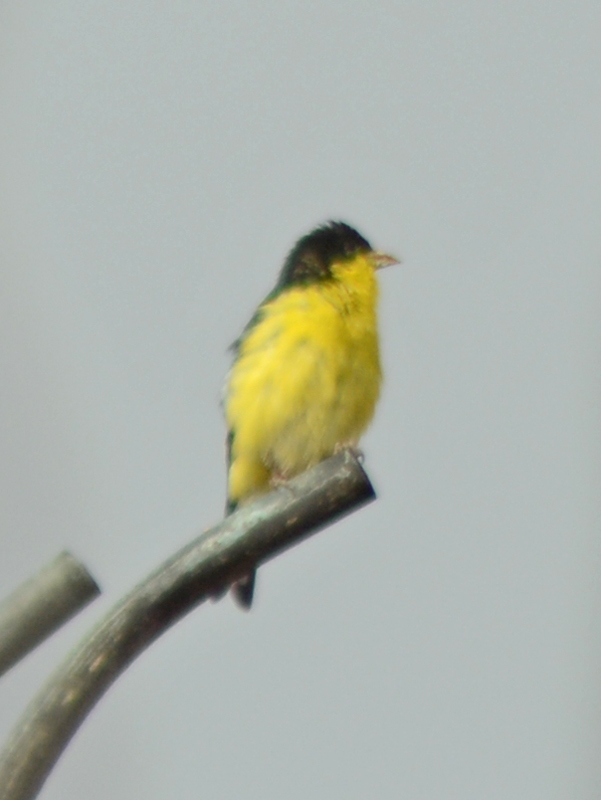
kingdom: Animalia
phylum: Chordata
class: Aves
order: Passeriformes
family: Fringillidae
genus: Spinus
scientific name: Spinus psaltria
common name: Lesser goldfinch
